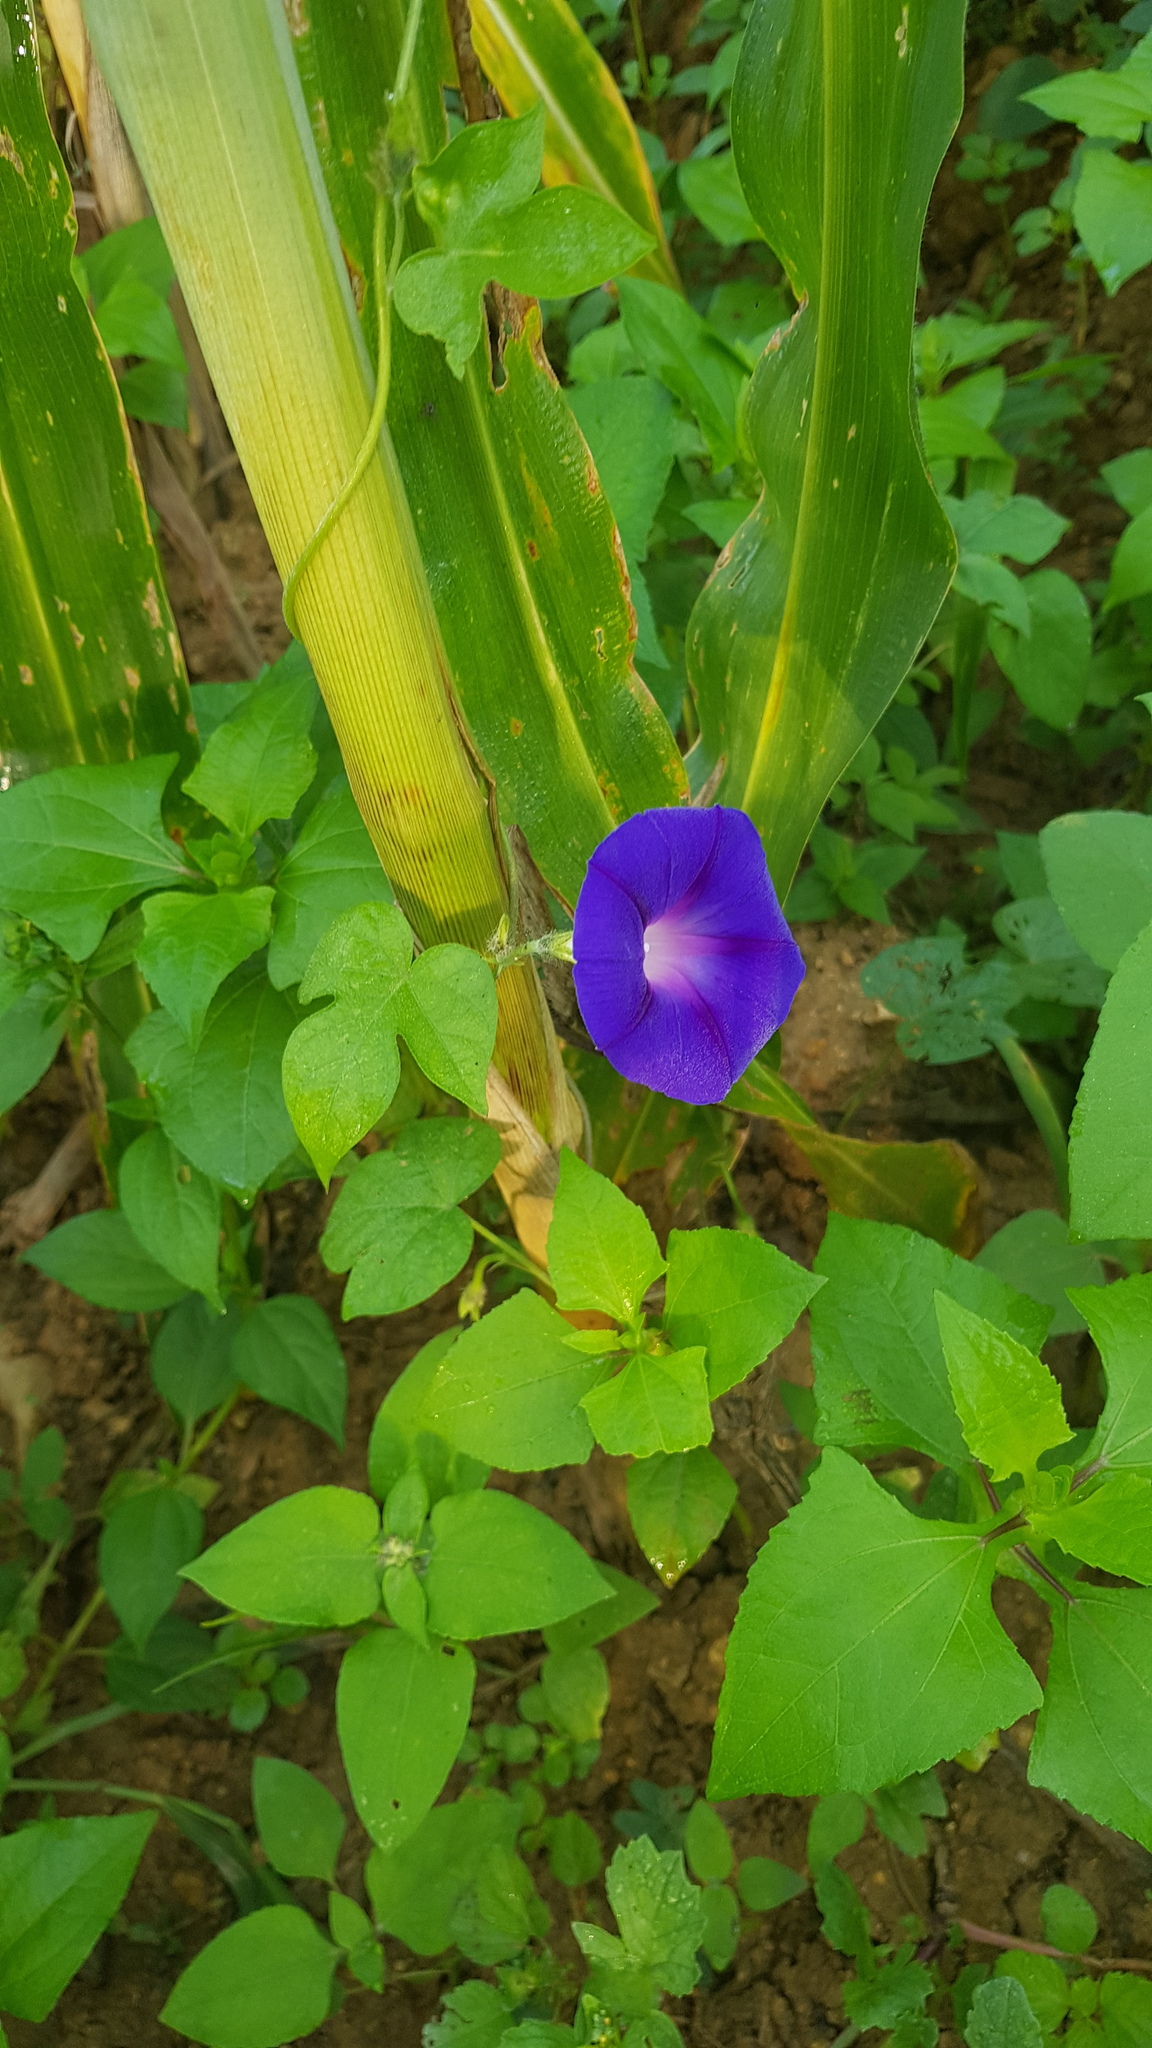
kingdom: Plantae
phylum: Tracheophyta
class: Magnoliopsida
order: Solanales
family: Convolvulaceae
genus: Ipomoea
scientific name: Ipomoea purpurea
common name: Common morning-glory
